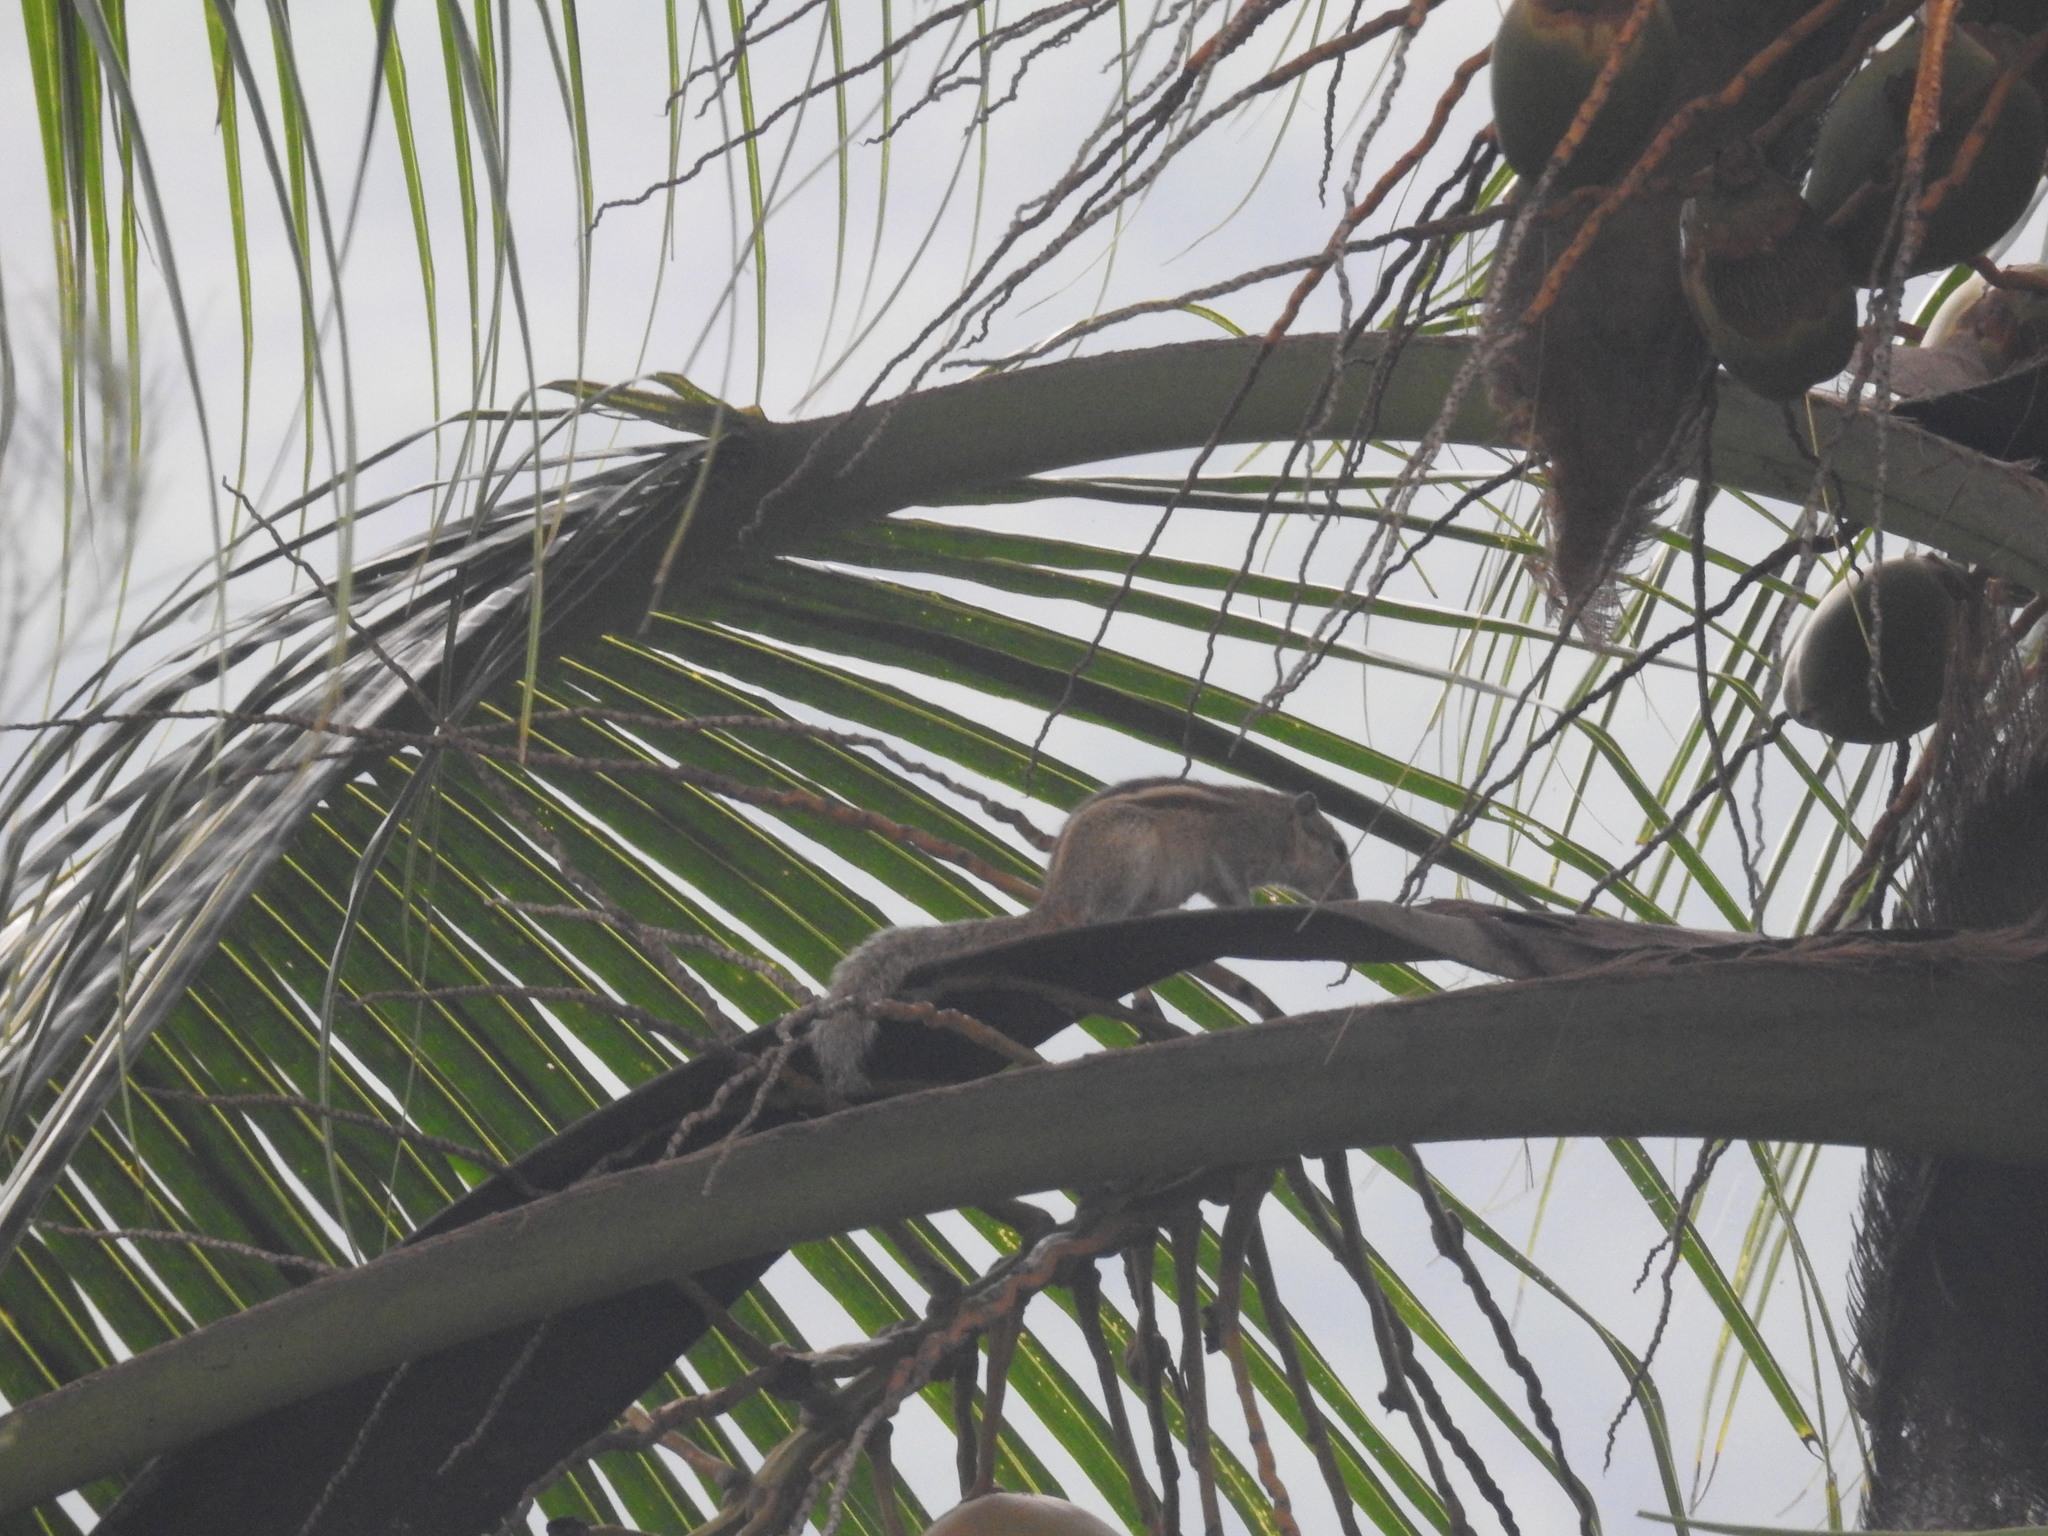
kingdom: Animalia
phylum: Chordata
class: Mammalia
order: Rodentia
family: Sciuridae
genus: Funambulus
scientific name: Funambulus palmarum
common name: Indian palm squirrel
